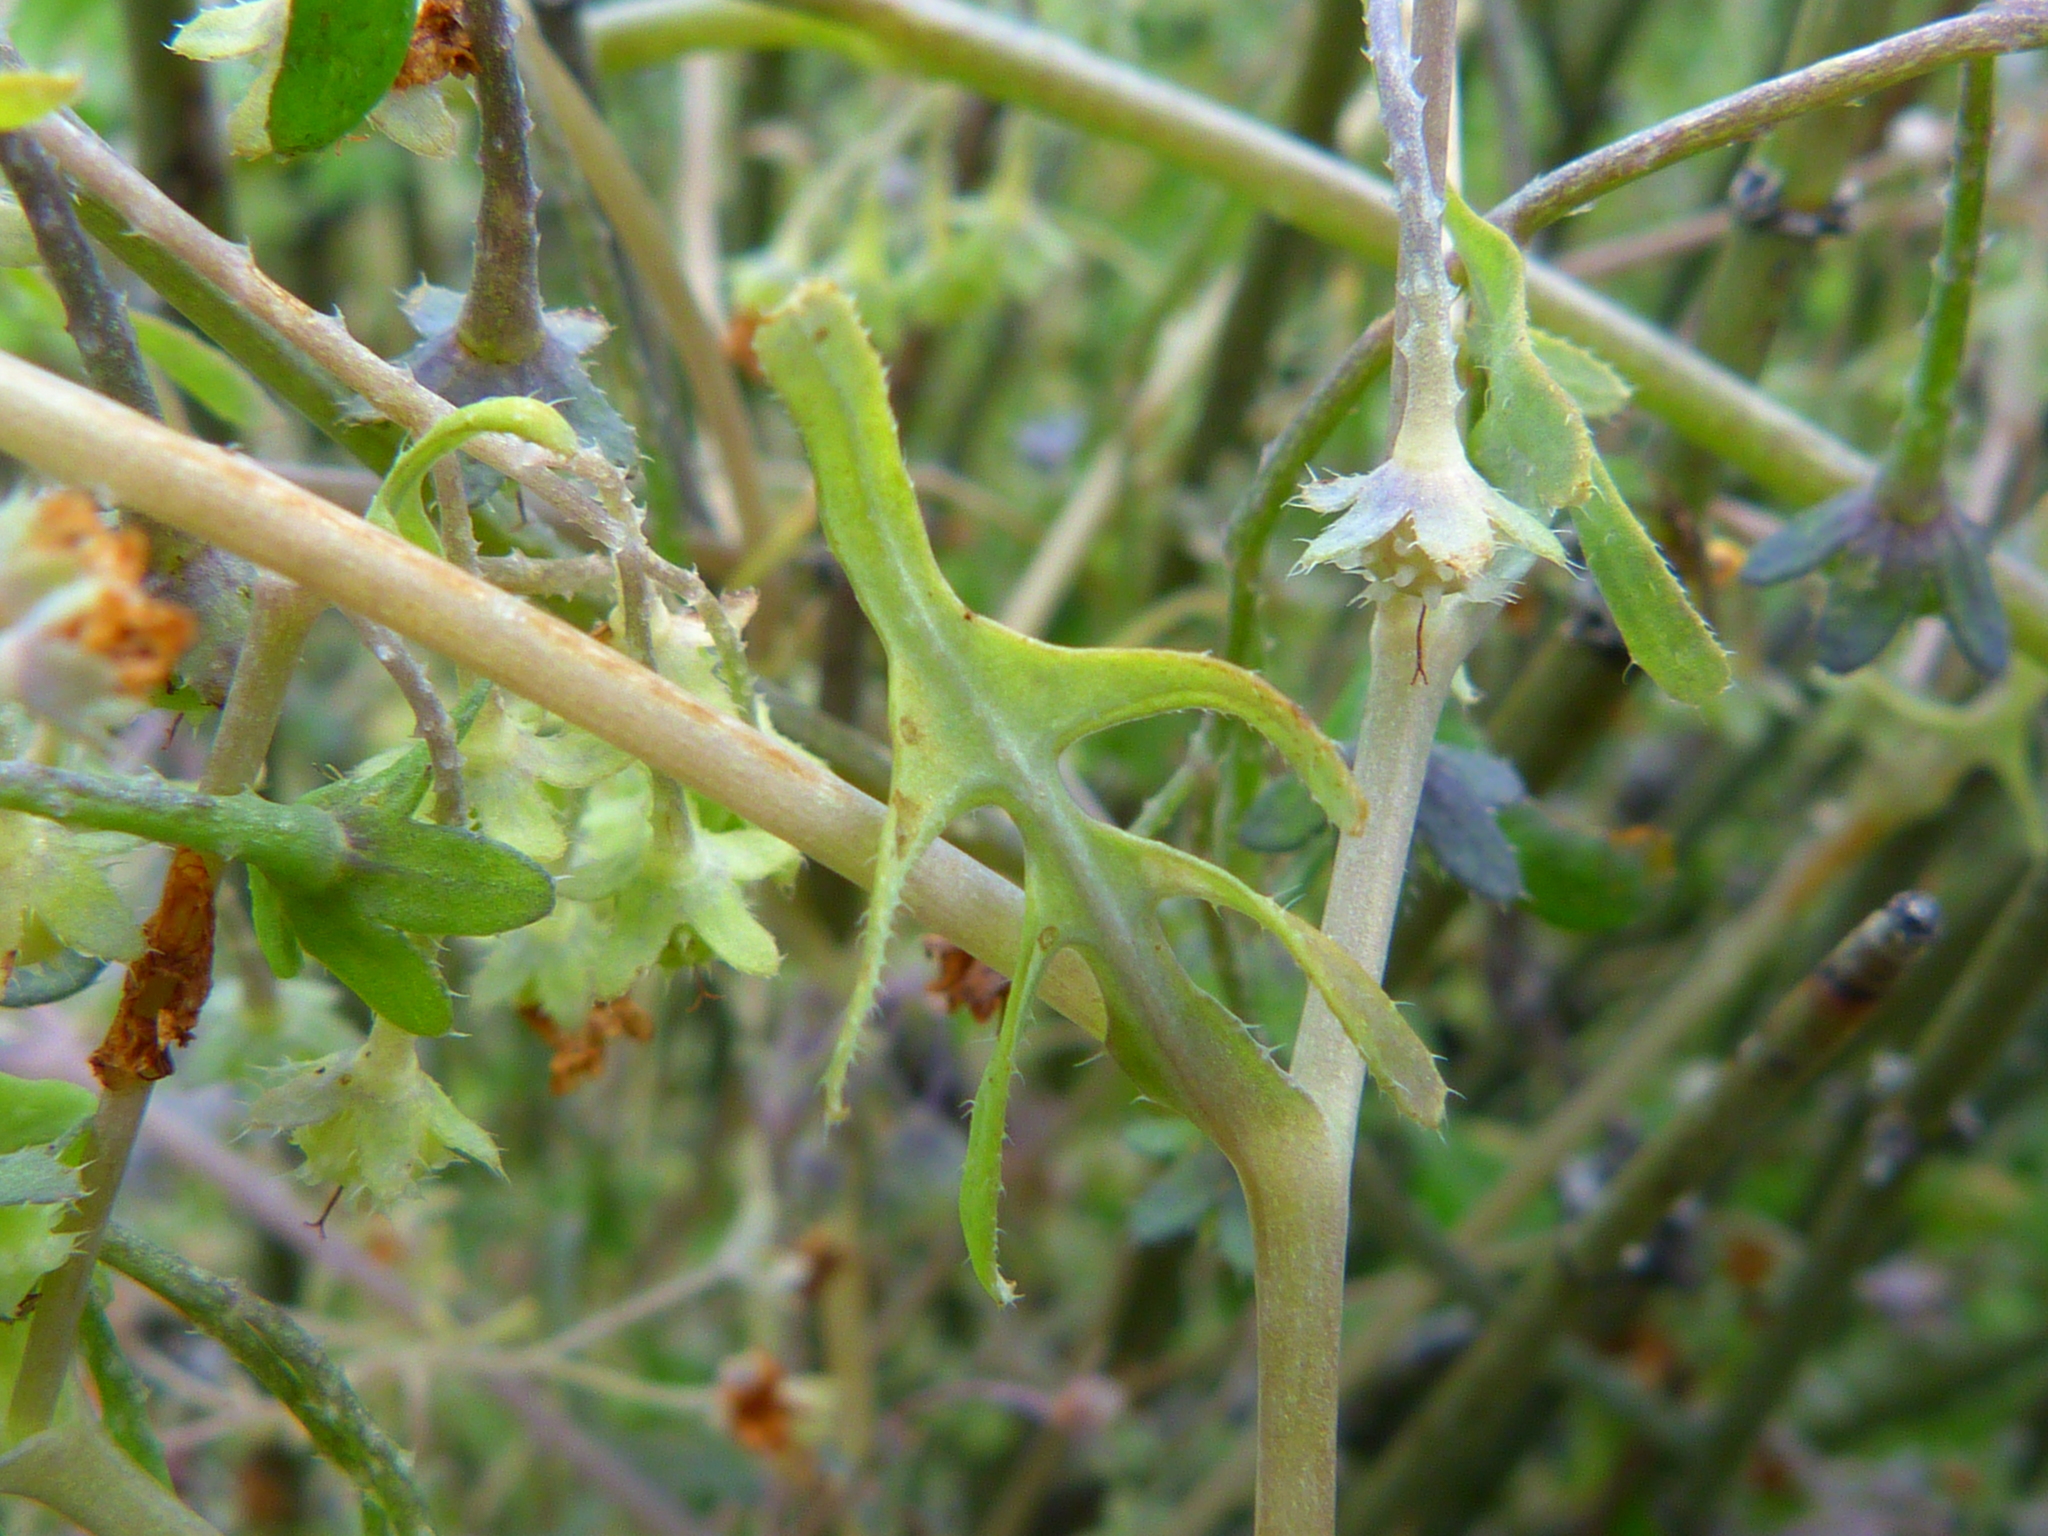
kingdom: Plantae
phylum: Tracheophyta
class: Magnoliopsida
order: Boraginales
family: Hydrophyllaceae
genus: Pholistoma
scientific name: Pholistoma membranaceum
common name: White fiesta-flower
